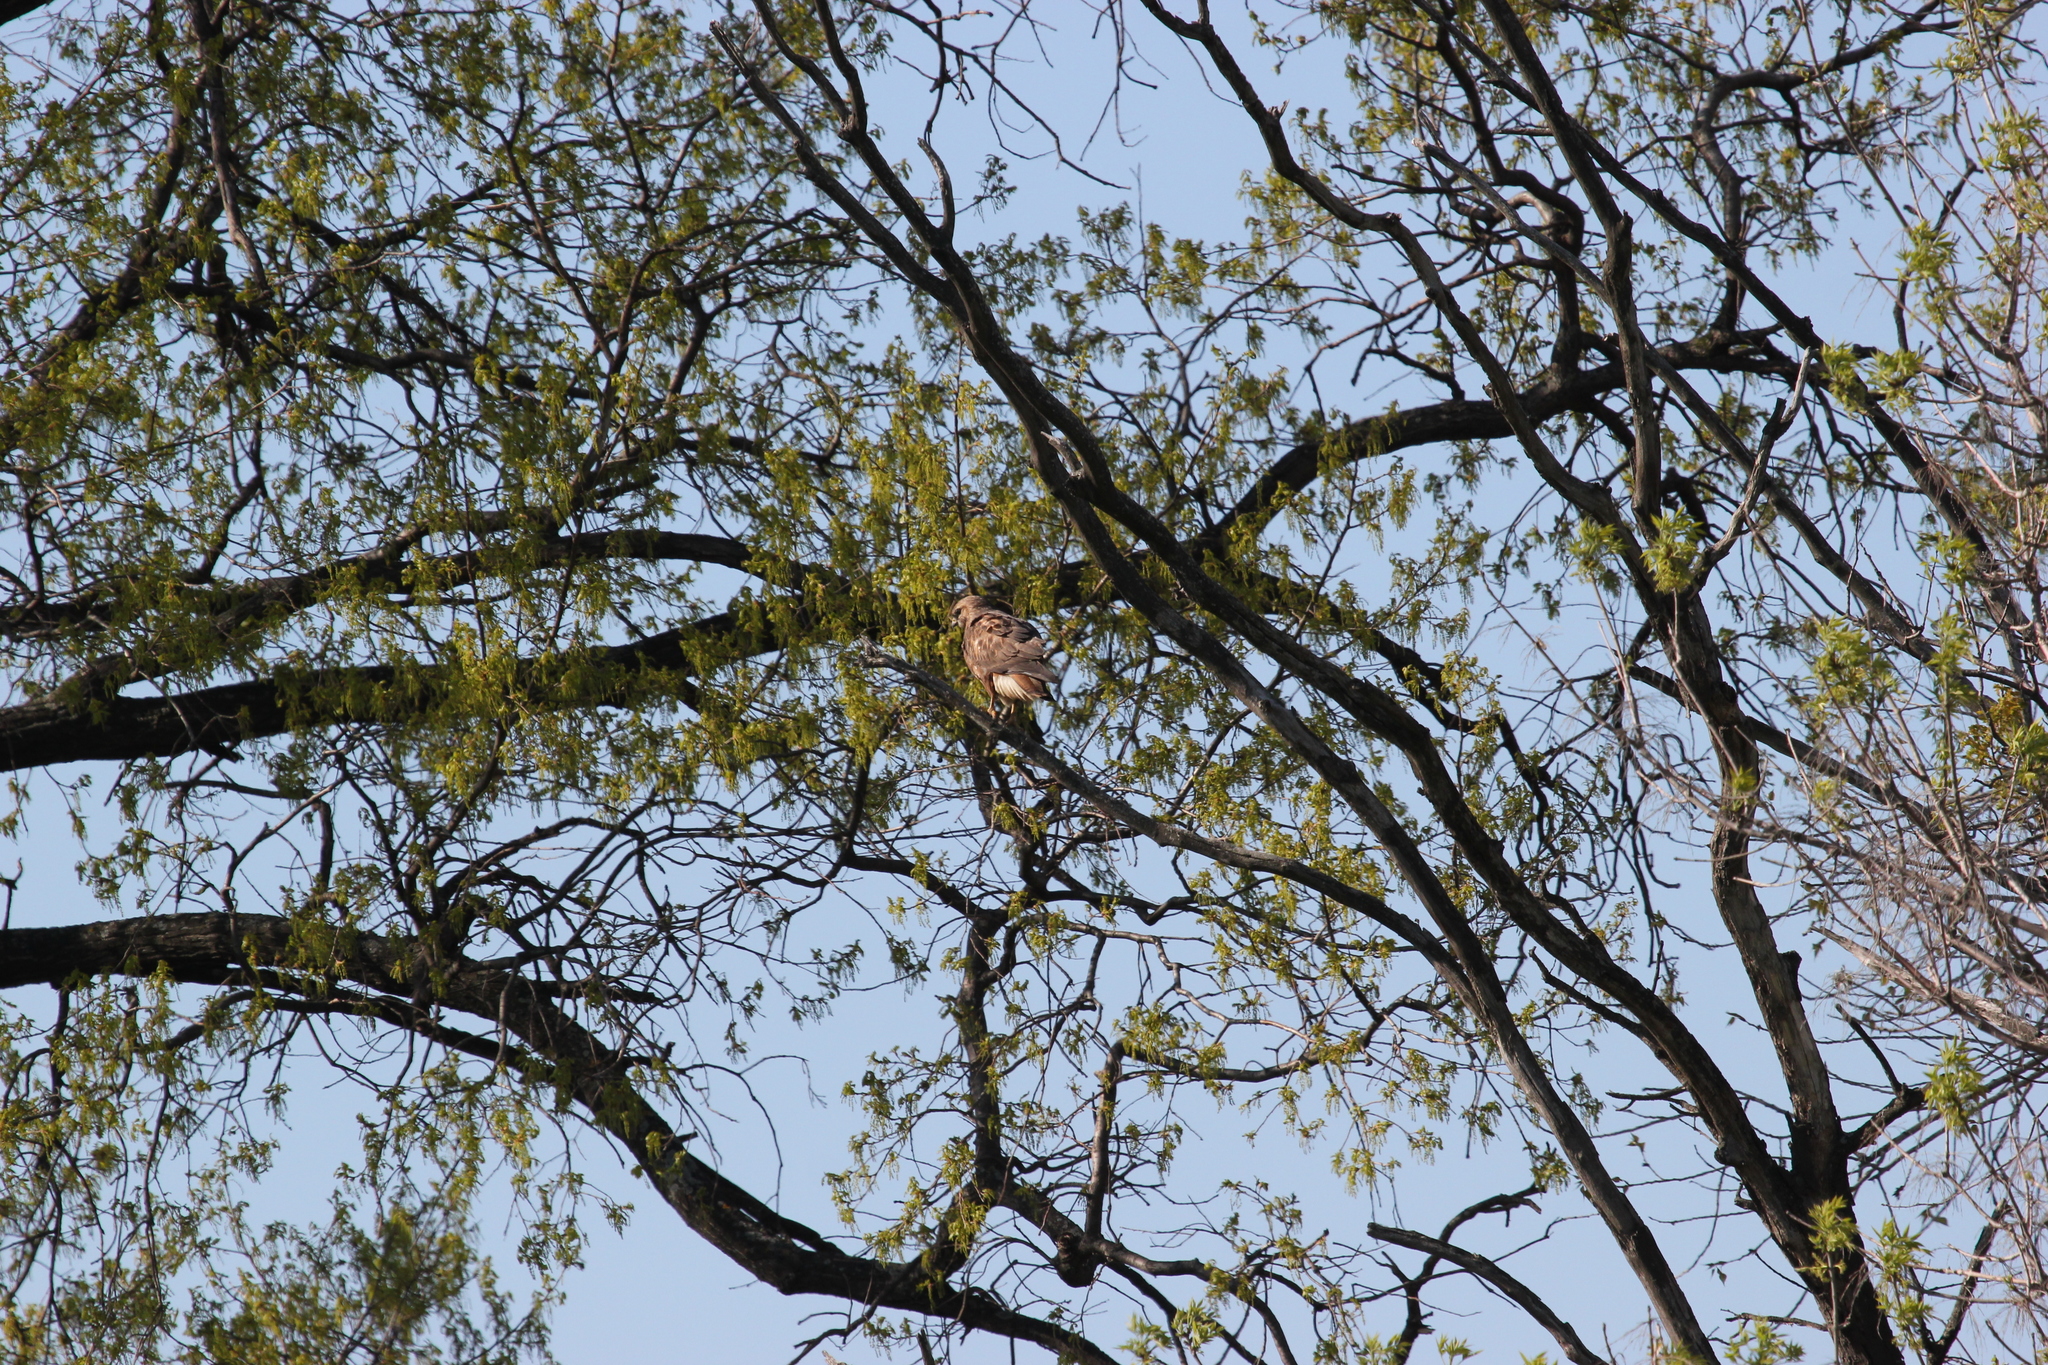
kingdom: Animalia
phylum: Chordata
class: Aves
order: Accipitriformes
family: Accipitridae
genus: Buteo
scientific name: Buteo buteo
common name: Common buzzard
